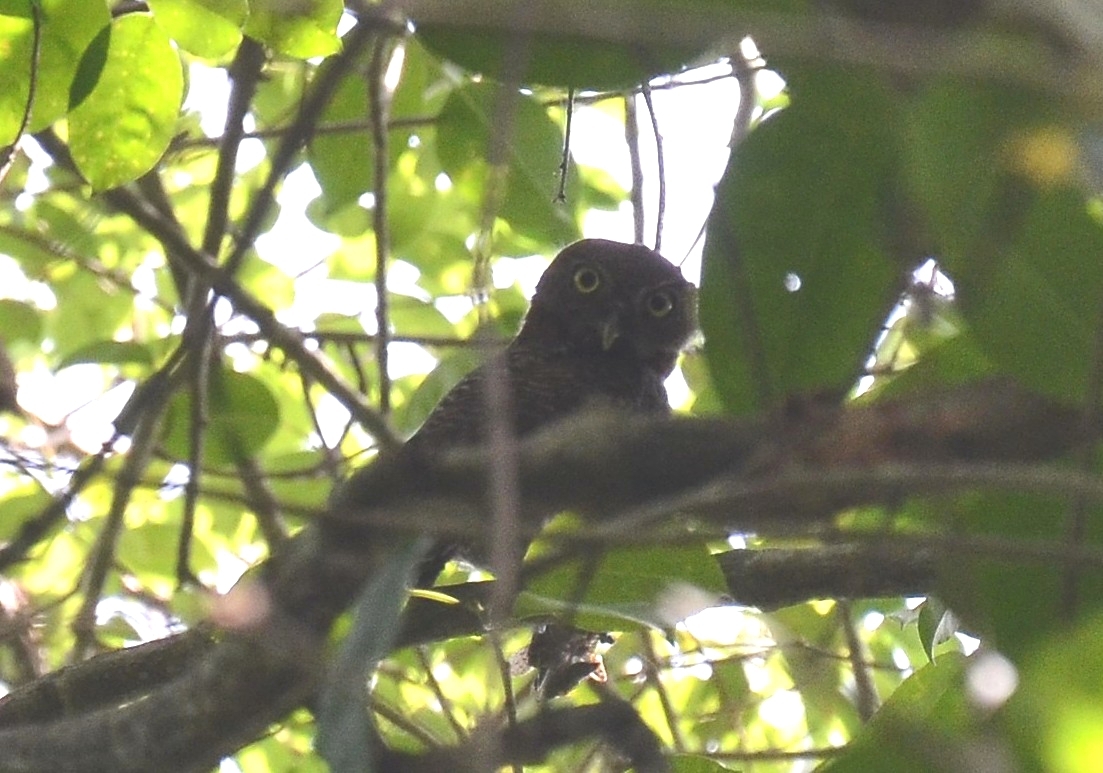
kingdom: Animalia
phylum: Chordata
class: Aves
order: Strigiformes
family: Strigidae
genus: Glaucidium
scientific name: Glaucidium radiatum
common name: Jungle owlet
